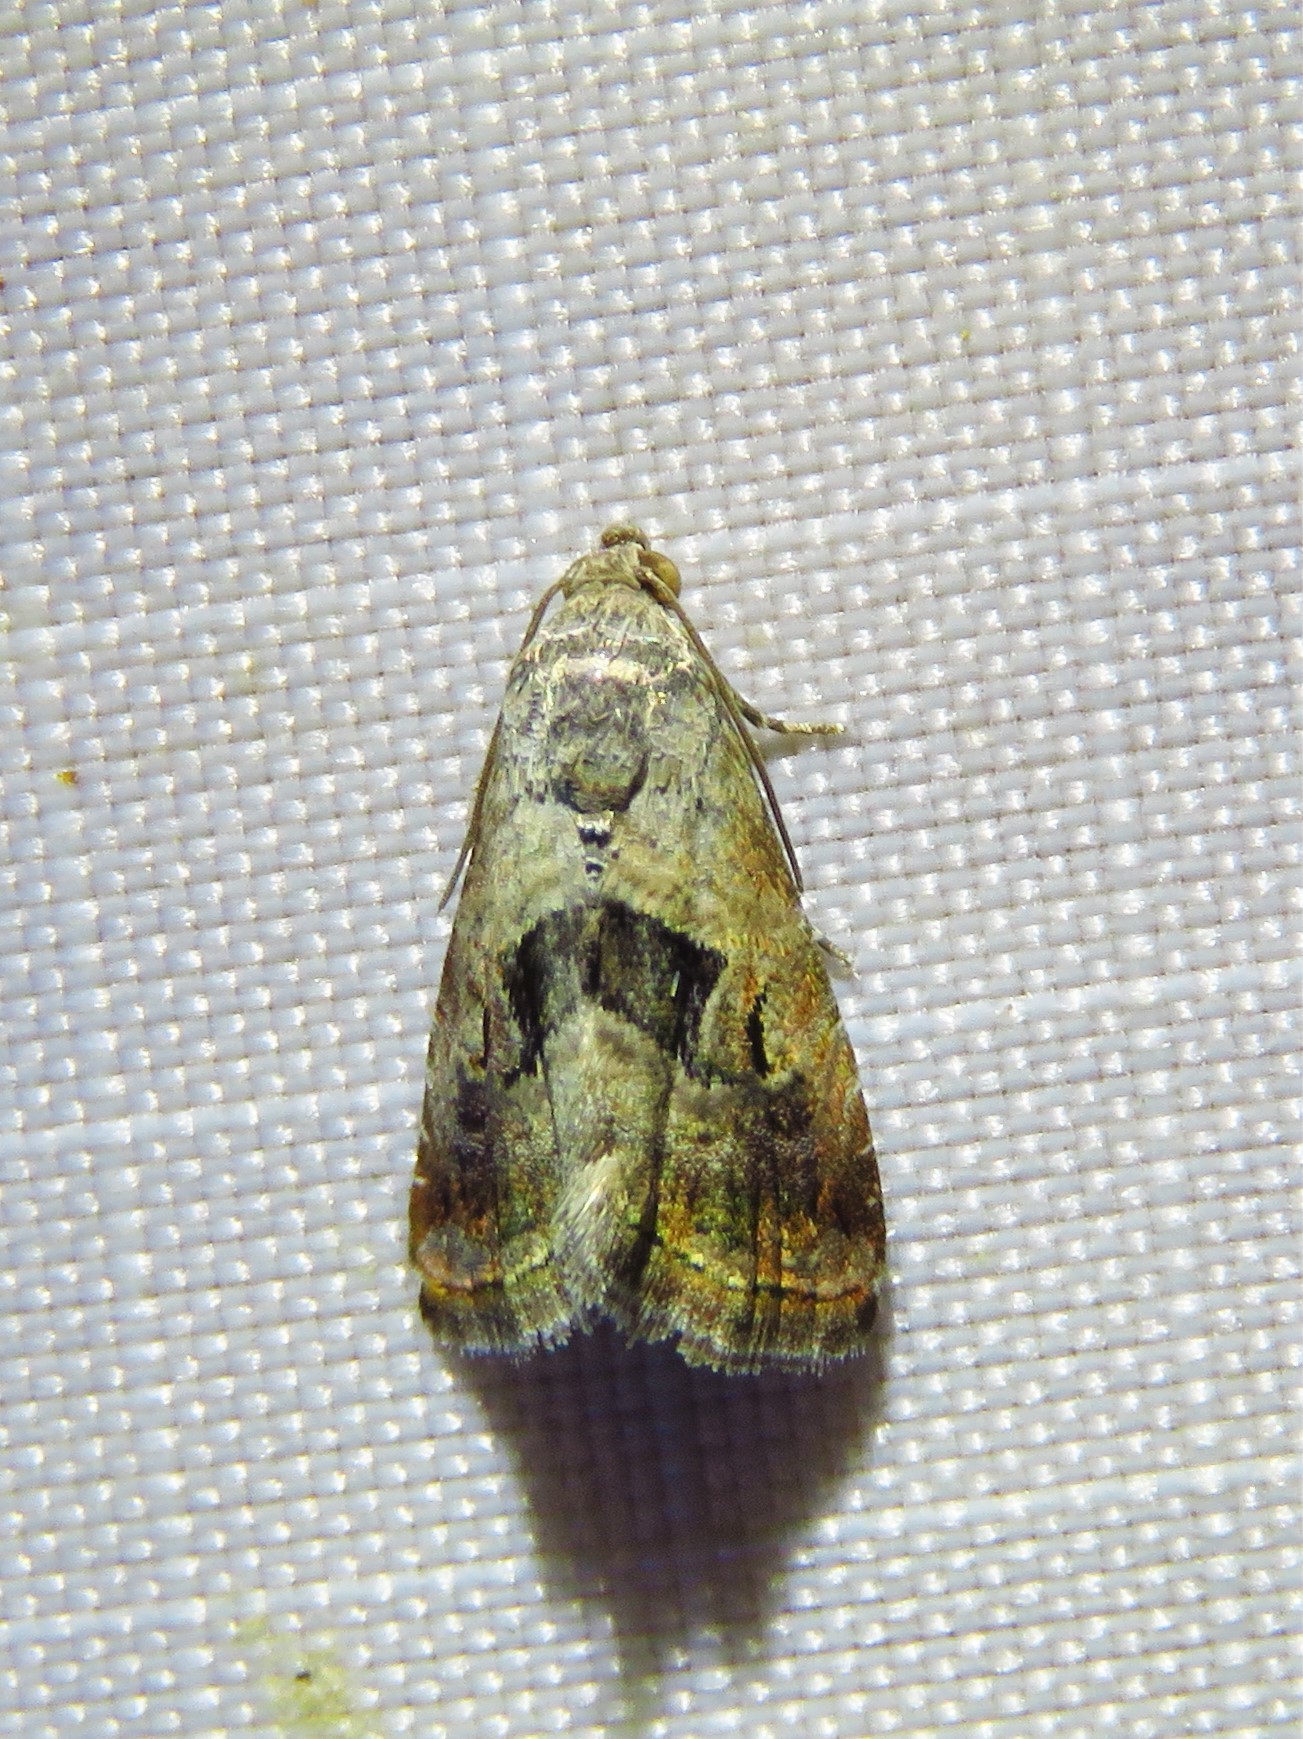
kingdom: Animalia
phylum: Arthropoda
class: Insecta
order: Lepidoptera
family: Noctuidae
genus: Tripudia
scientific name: Tripudia quadrifera
